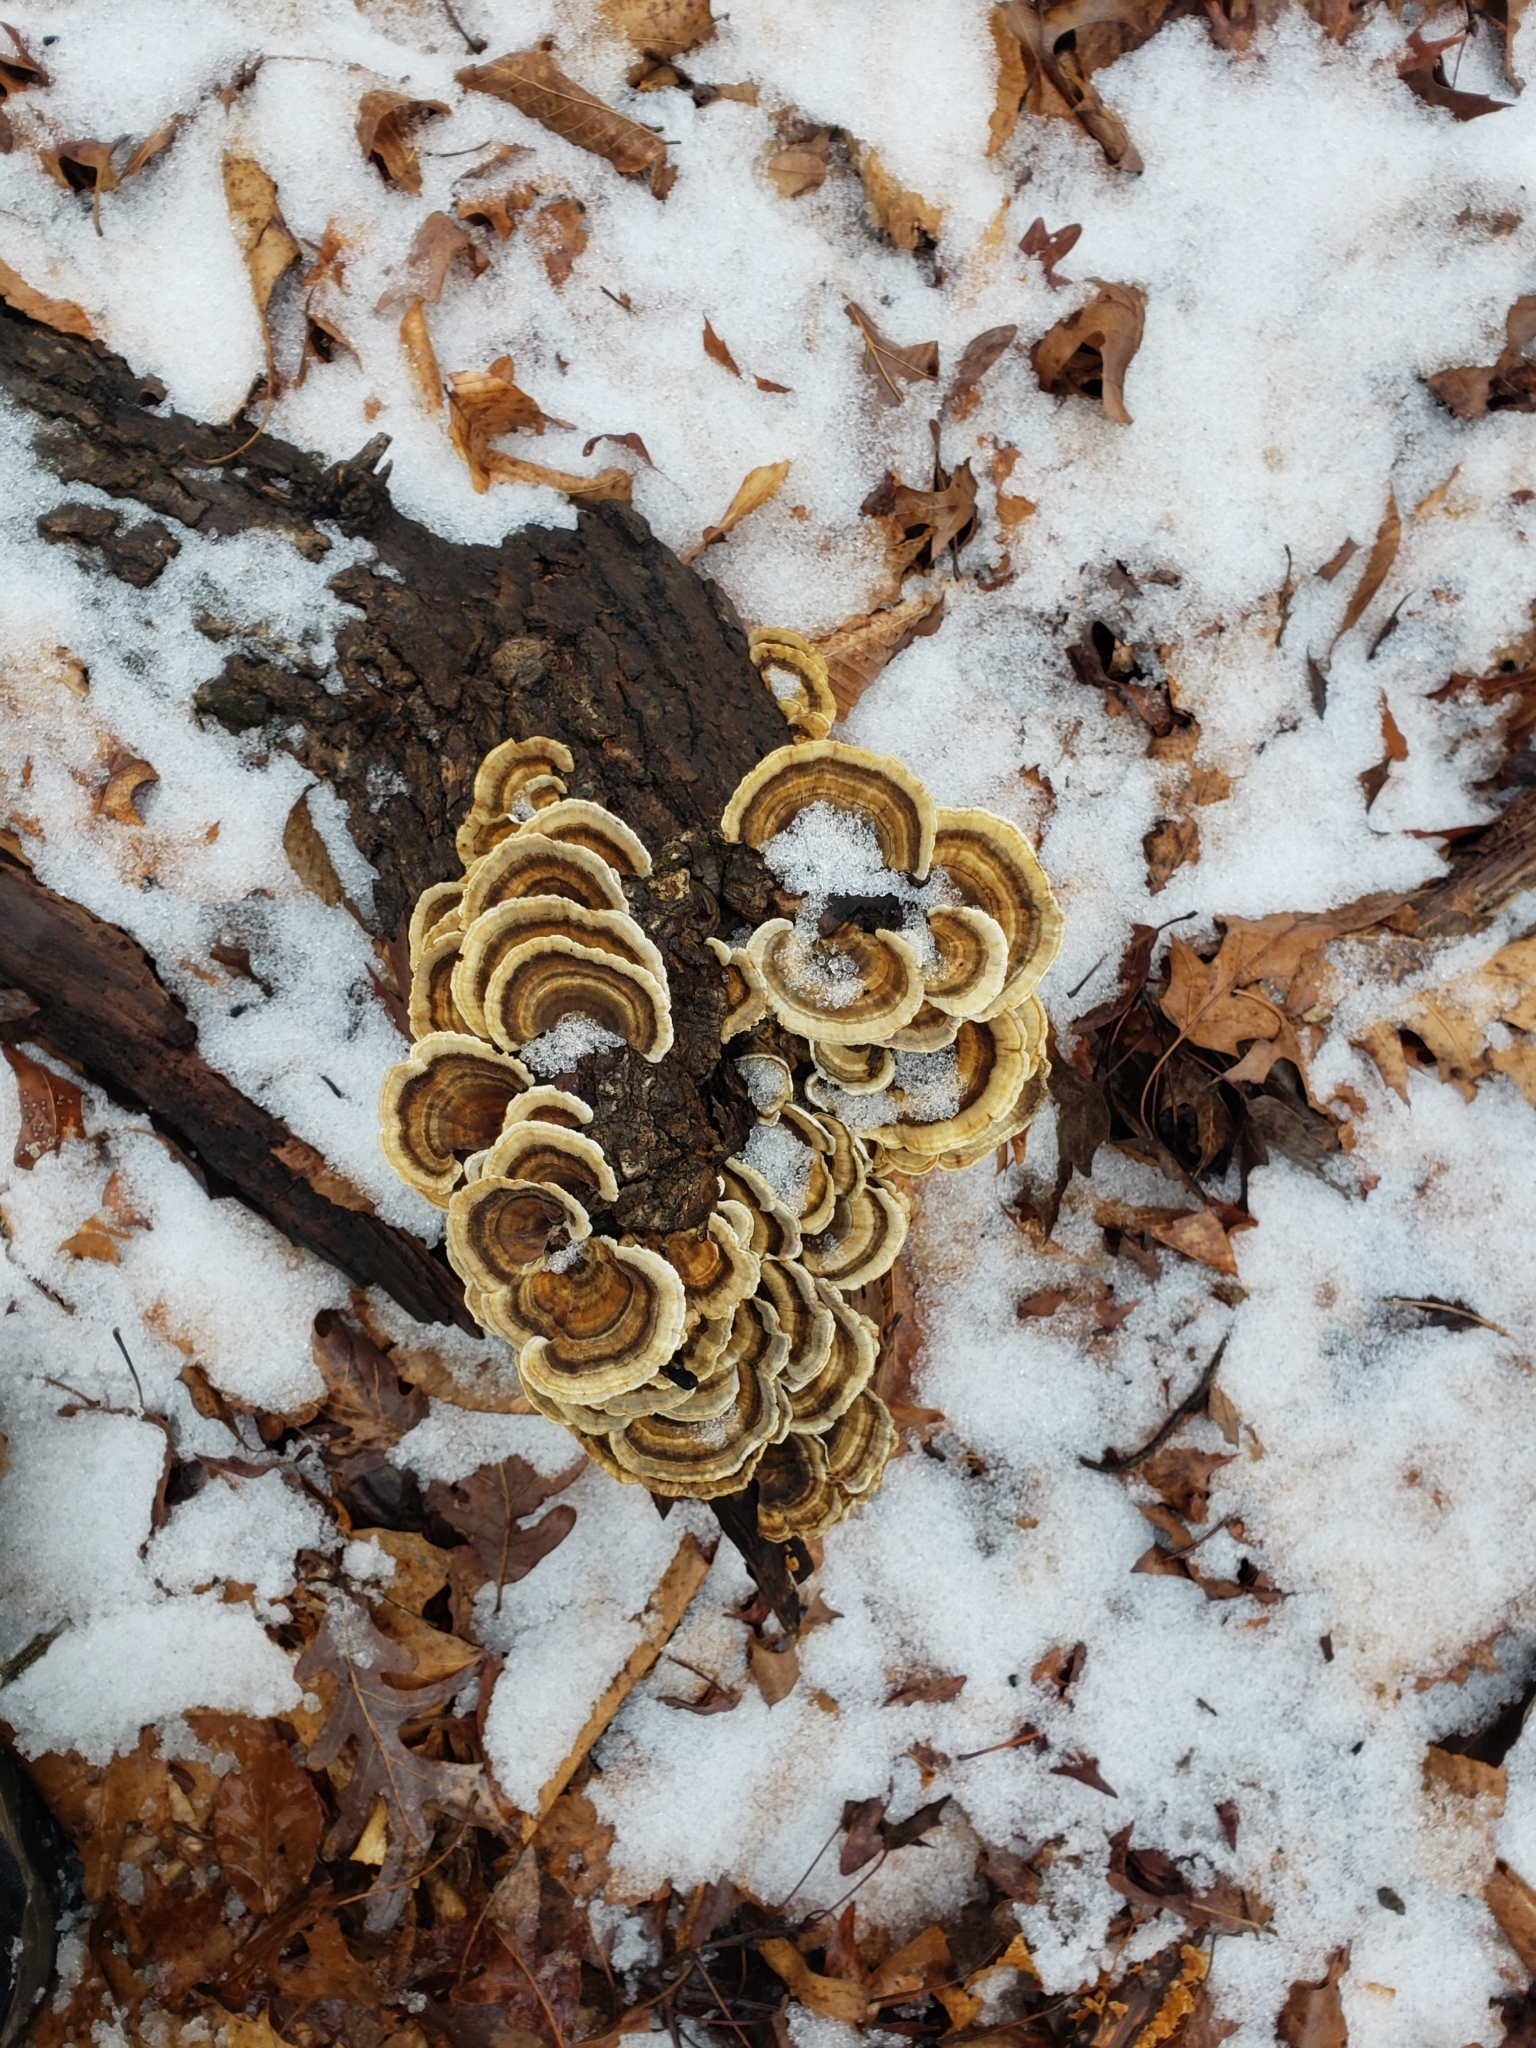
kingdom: Fungi
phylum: Basidiomycota
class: Agaricomycetes
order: Polyporales
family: Polyporaceae
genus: Trametes
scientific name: Trametes versicolor
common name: Turkeytail
